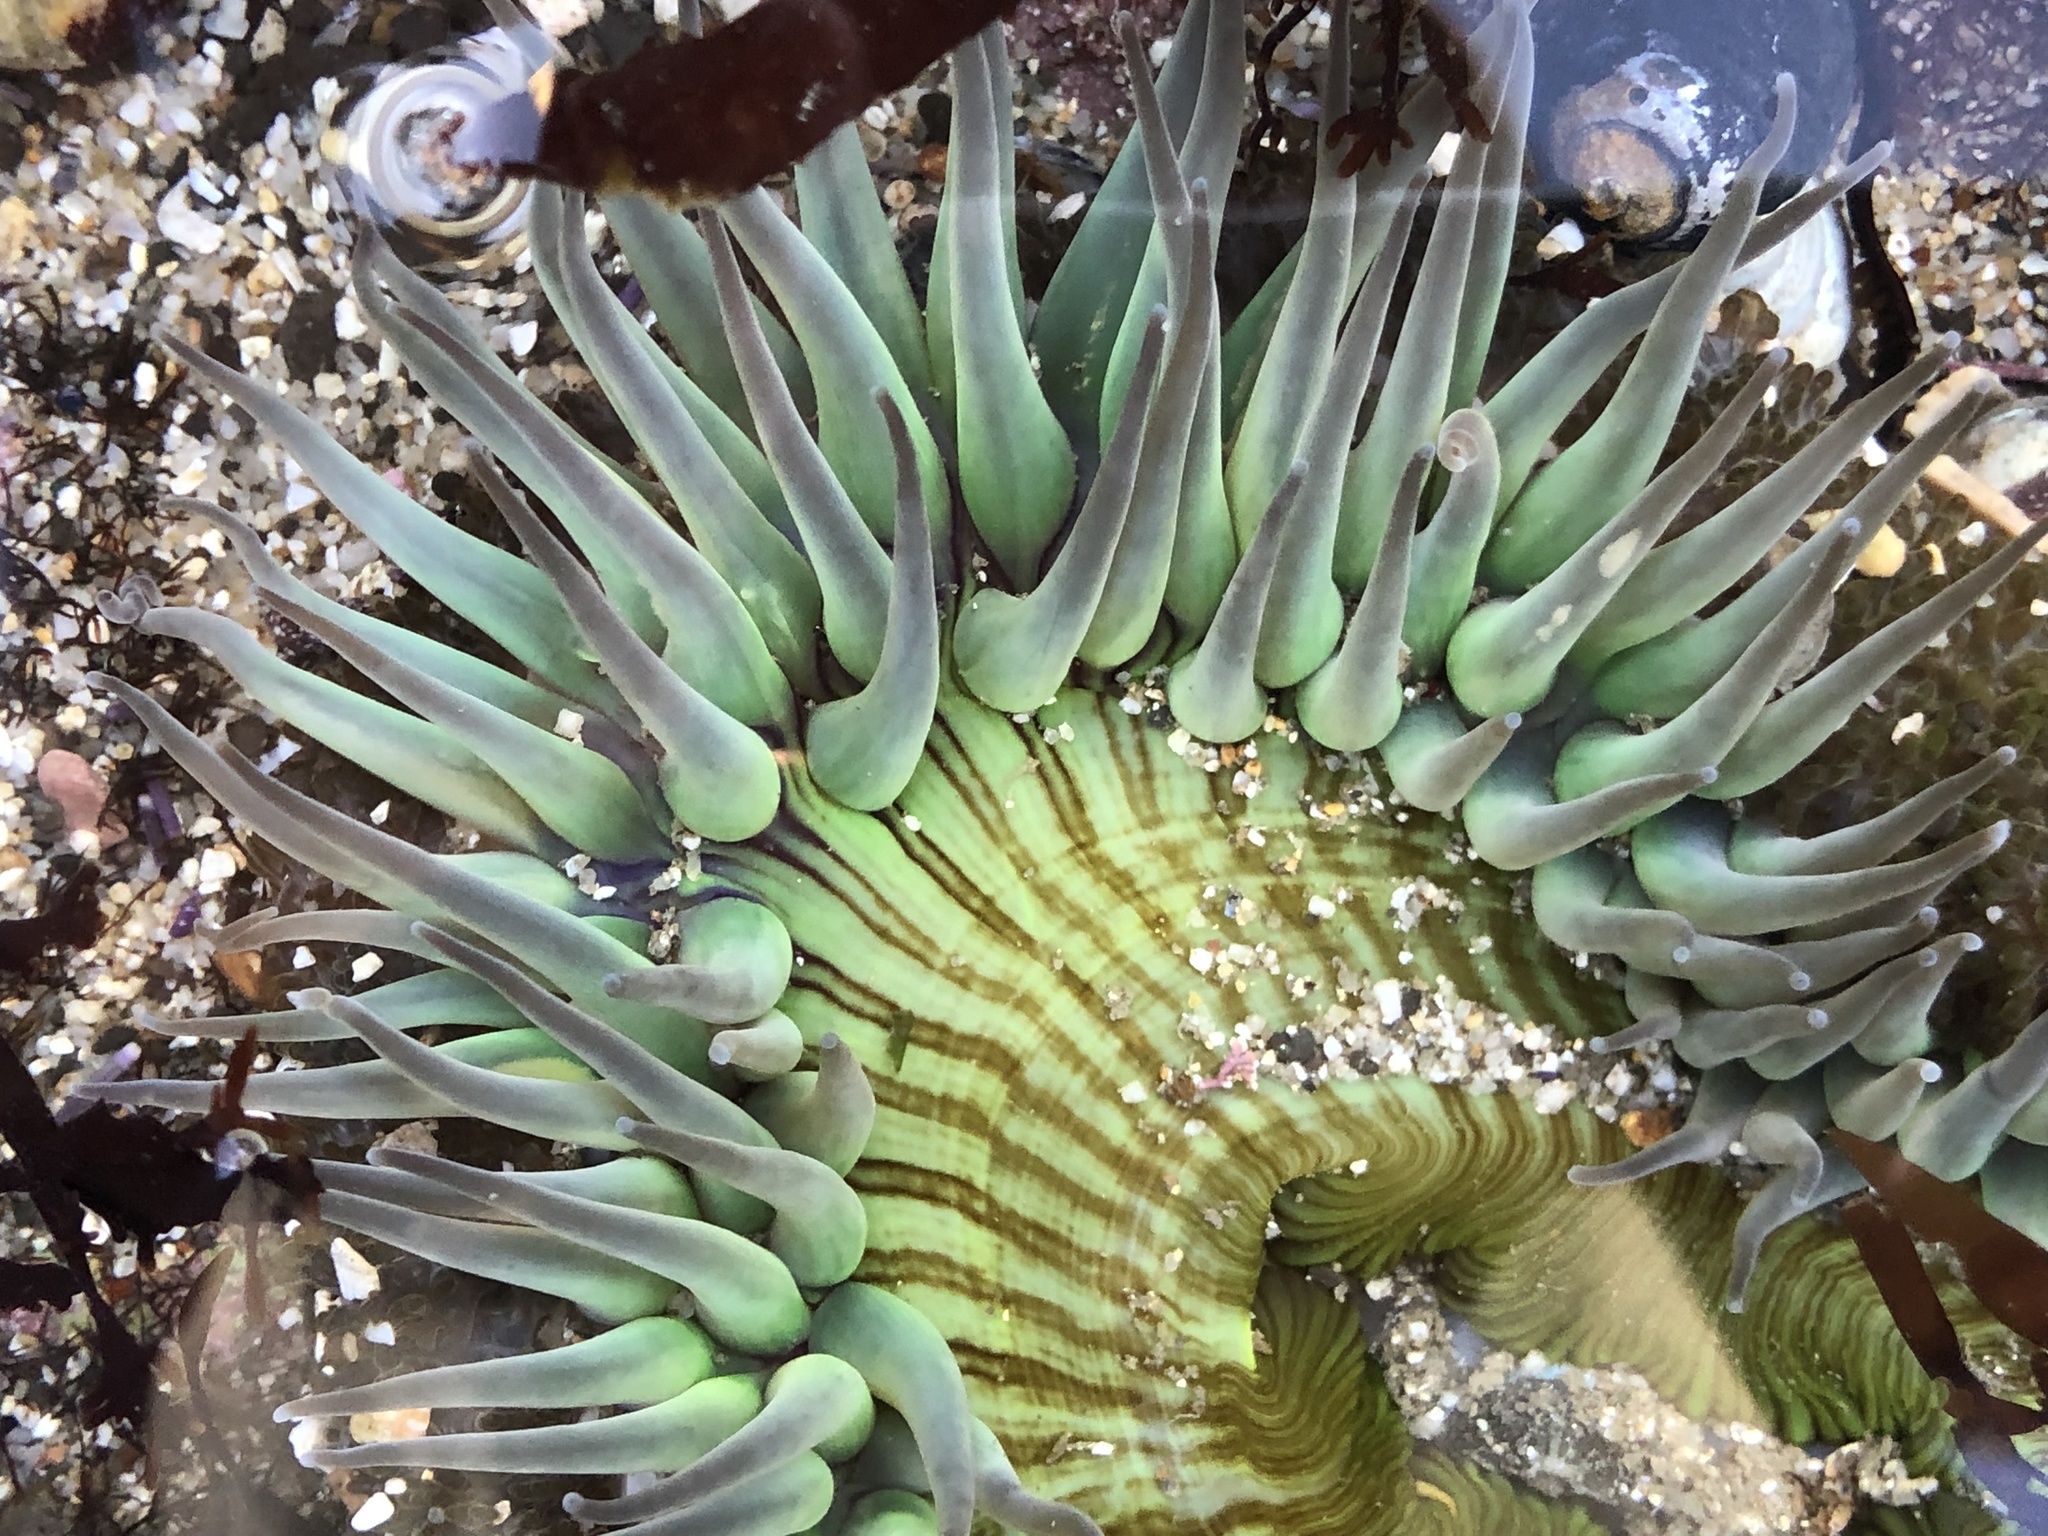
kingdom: Animalia
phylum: Cnidaria
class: Anthozoa
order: Actiniaria
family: Actiniidae
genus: Anthopleura
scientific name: Anthopleura sola
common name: Sun anemone
